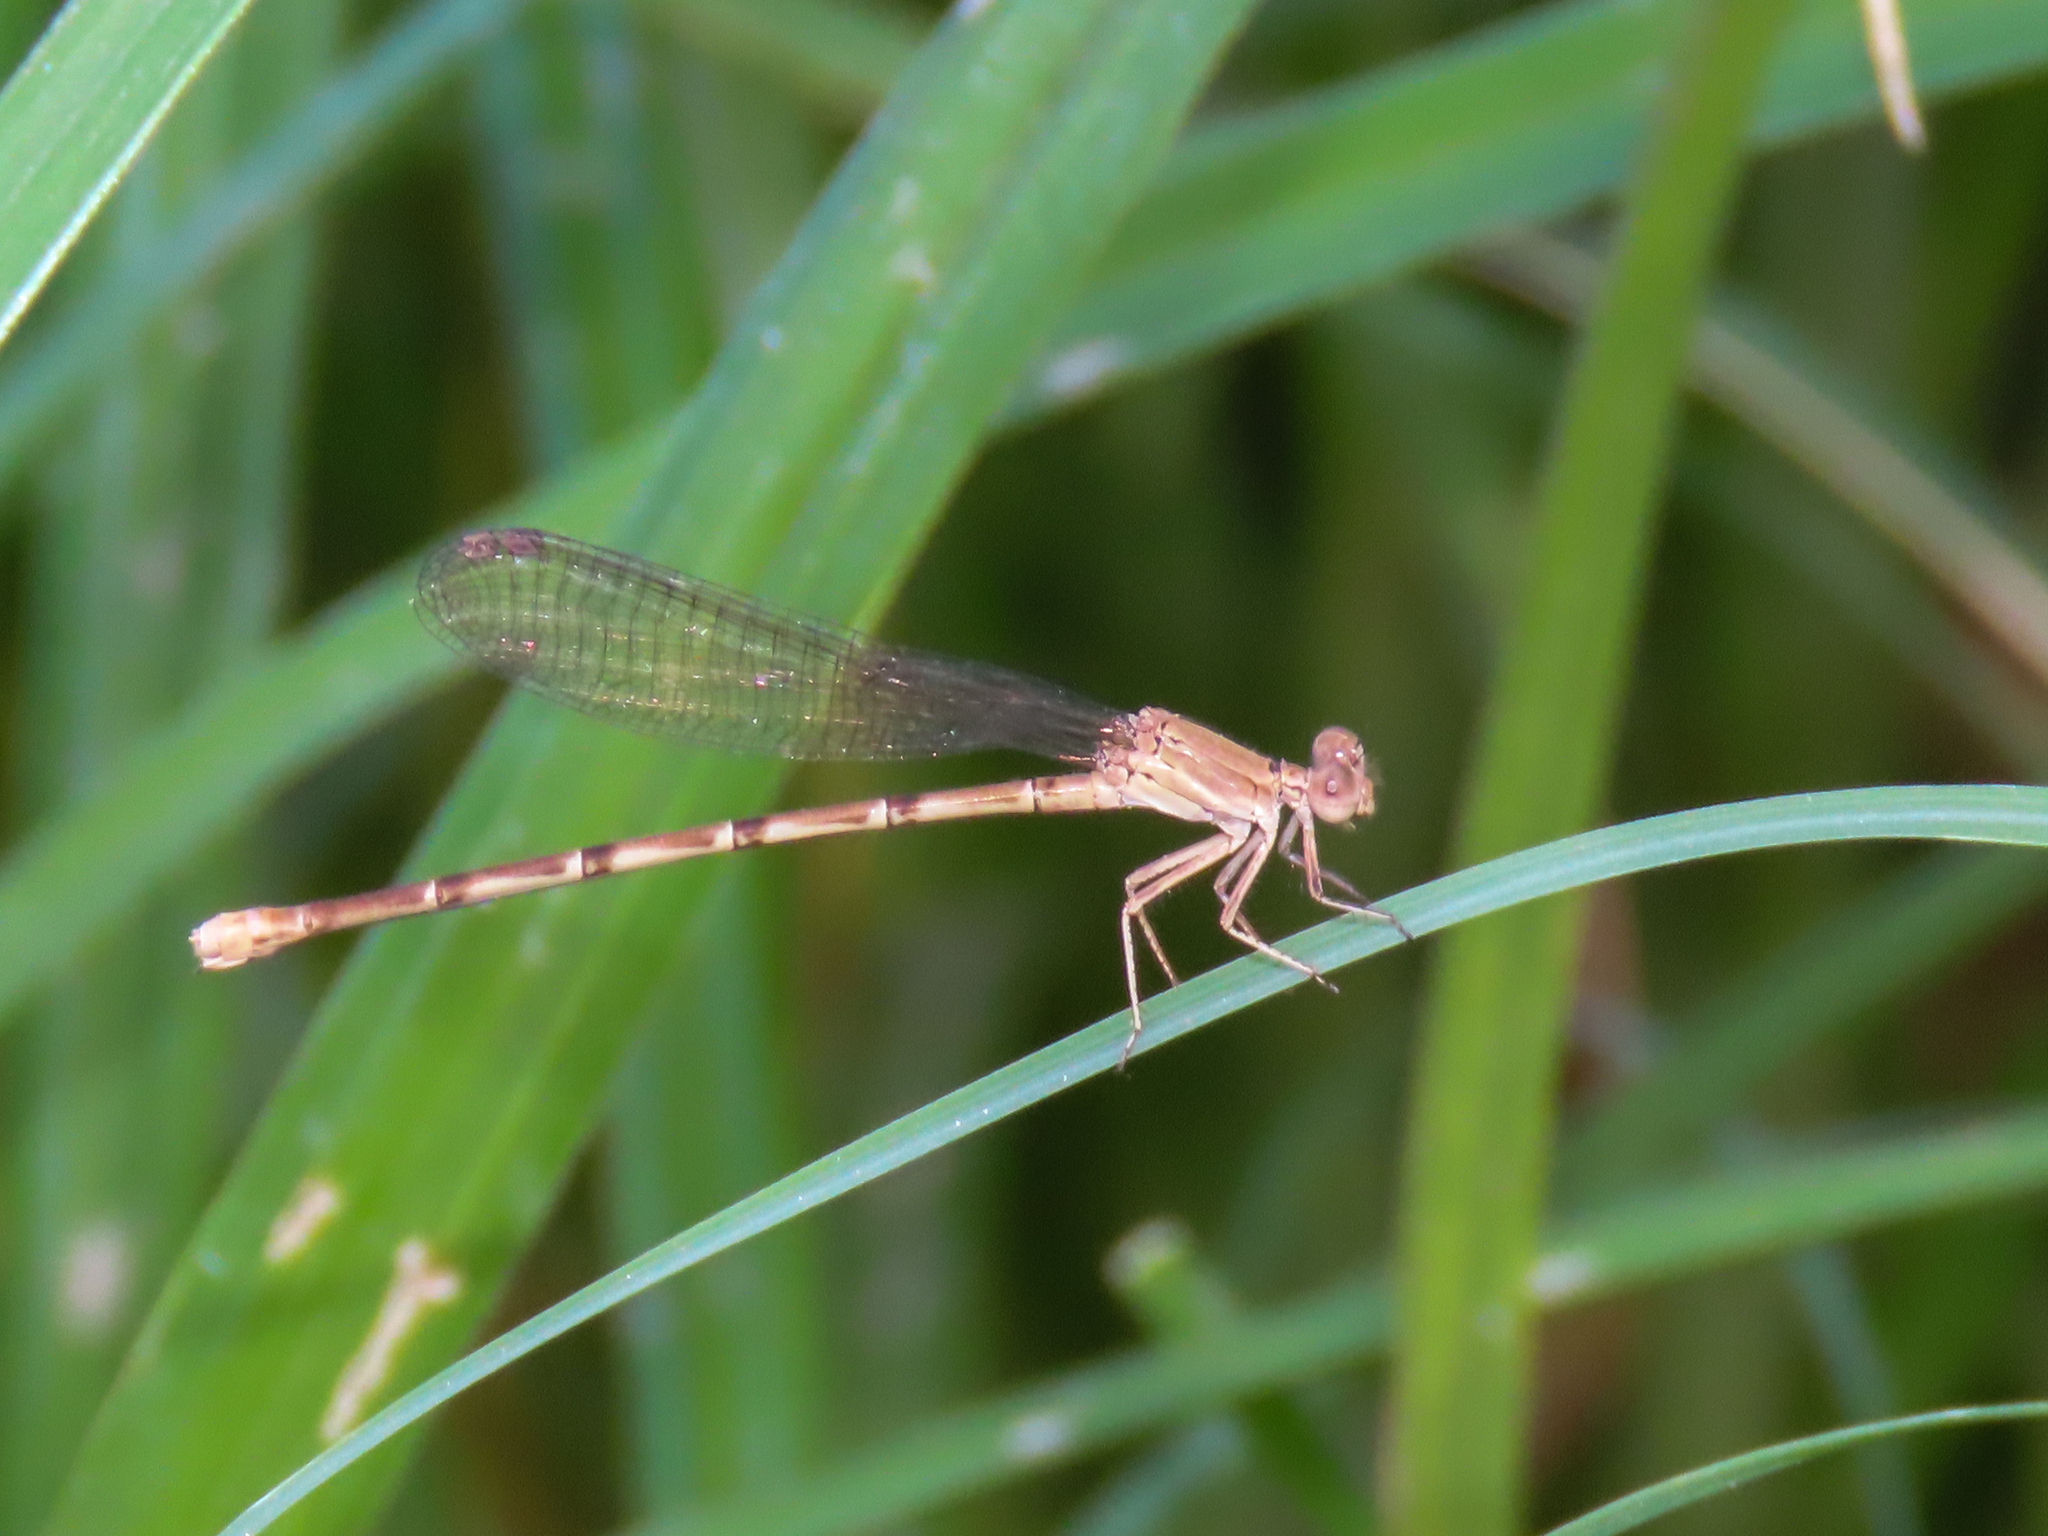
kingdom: Animalia
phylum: Arthropoda
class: Insecta
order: Odonata
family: Coenagrionidae
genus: Argia
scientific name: Argia sedula
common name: Blue-ringed dancer
